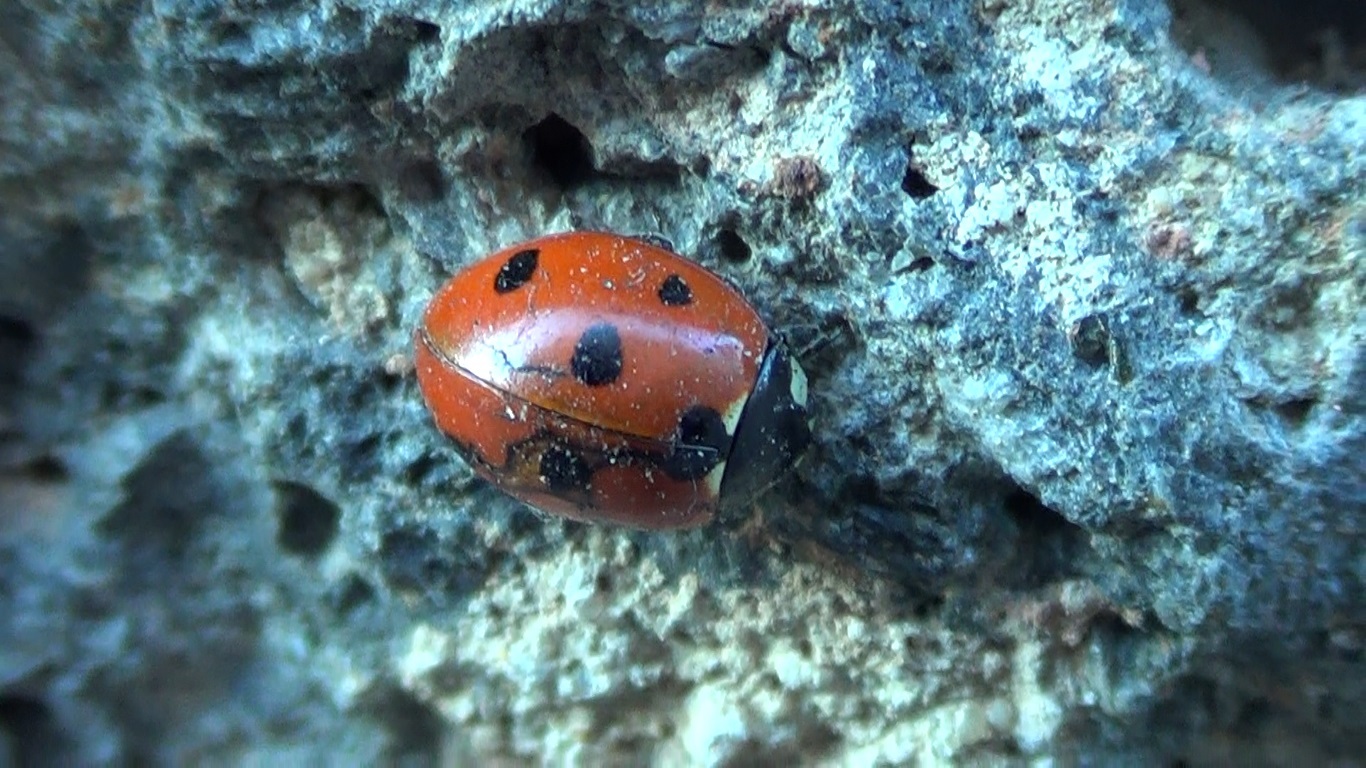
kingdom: Animalia
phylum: Arthropoda
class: Insecta
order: Coleoptera
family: Coccinellidae
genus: Coccinella
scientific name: Coccinella septempunctata
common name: Sevenspotted lady beetle
